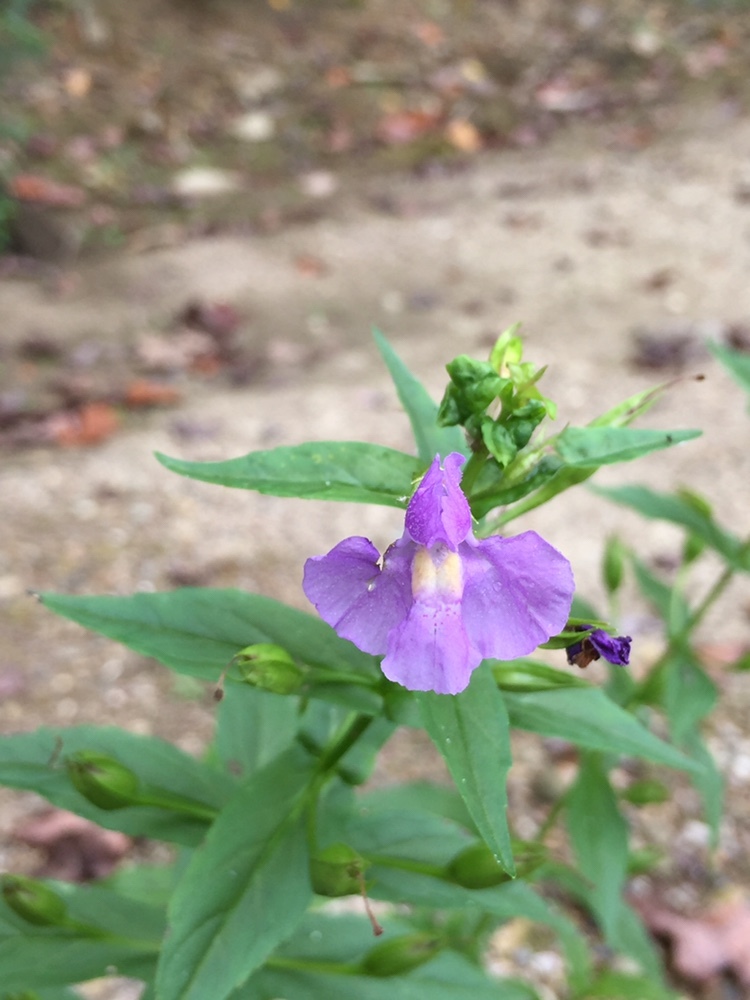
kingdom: Plantae
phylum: Tracheophyta
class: Magnoliopsida
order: Lamiales
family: Phrymaceae
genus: Mimulus
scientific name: Mimulus ringens
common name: Allegheny monkeyflower
